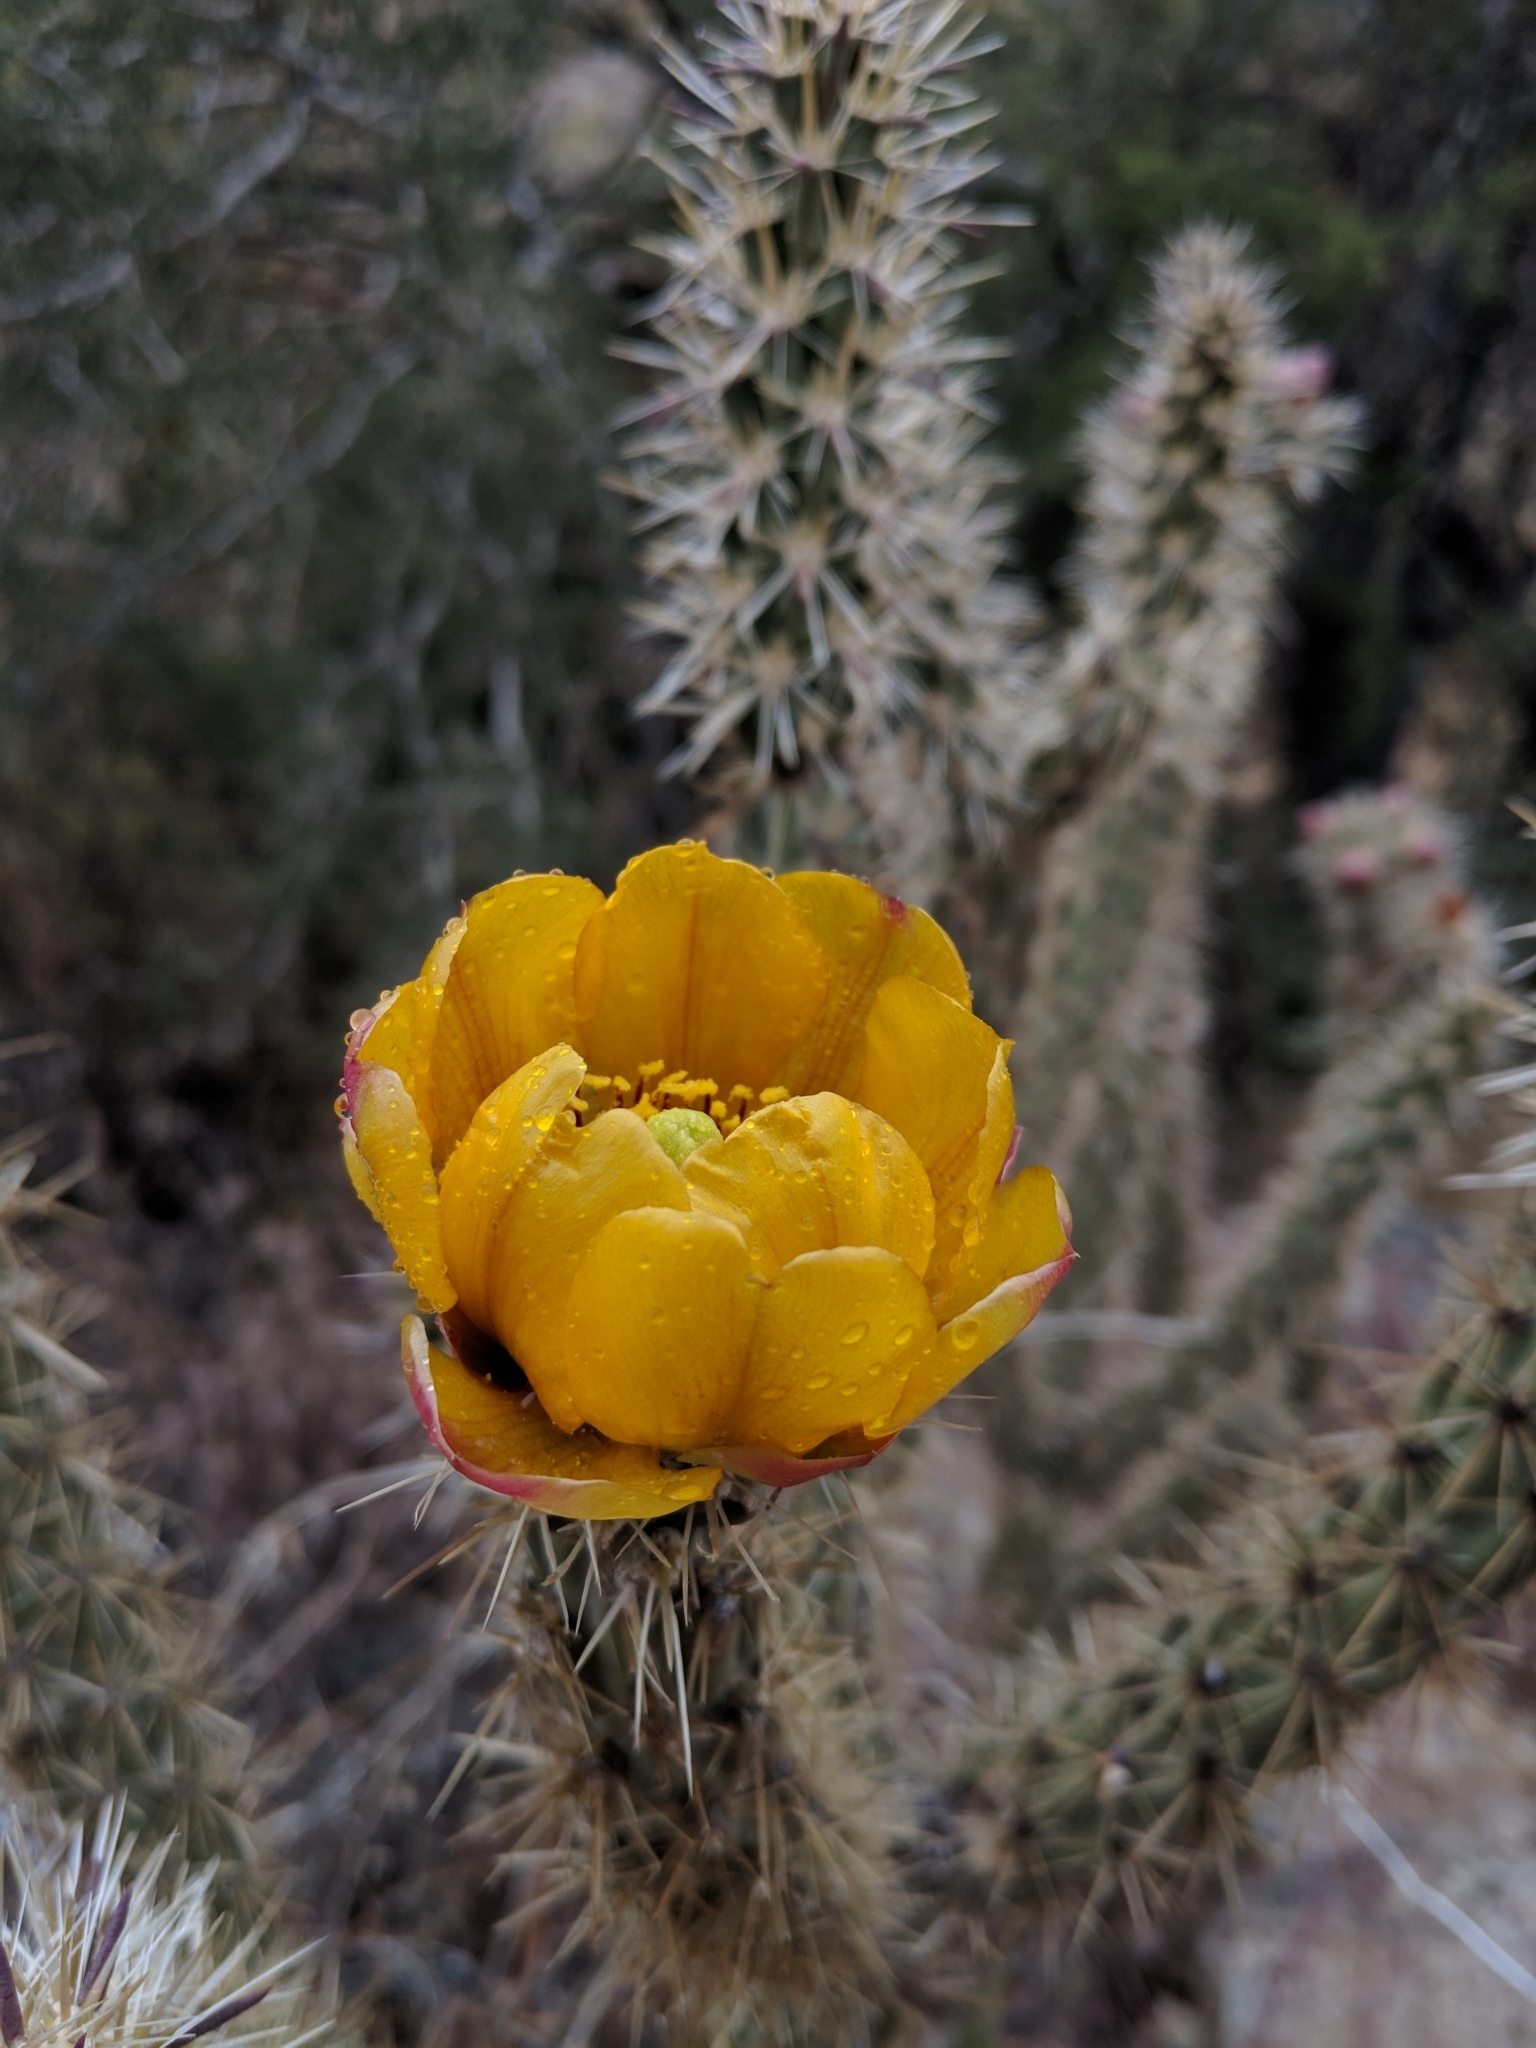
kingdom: Plantae
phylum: Tracheophyta
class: Magnoliopsida
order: Caryophyllales
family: Cactaceae
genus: Cylindropuntia
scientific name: Cylindropuntia acanthocarpa
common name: Buckhorn cholla
